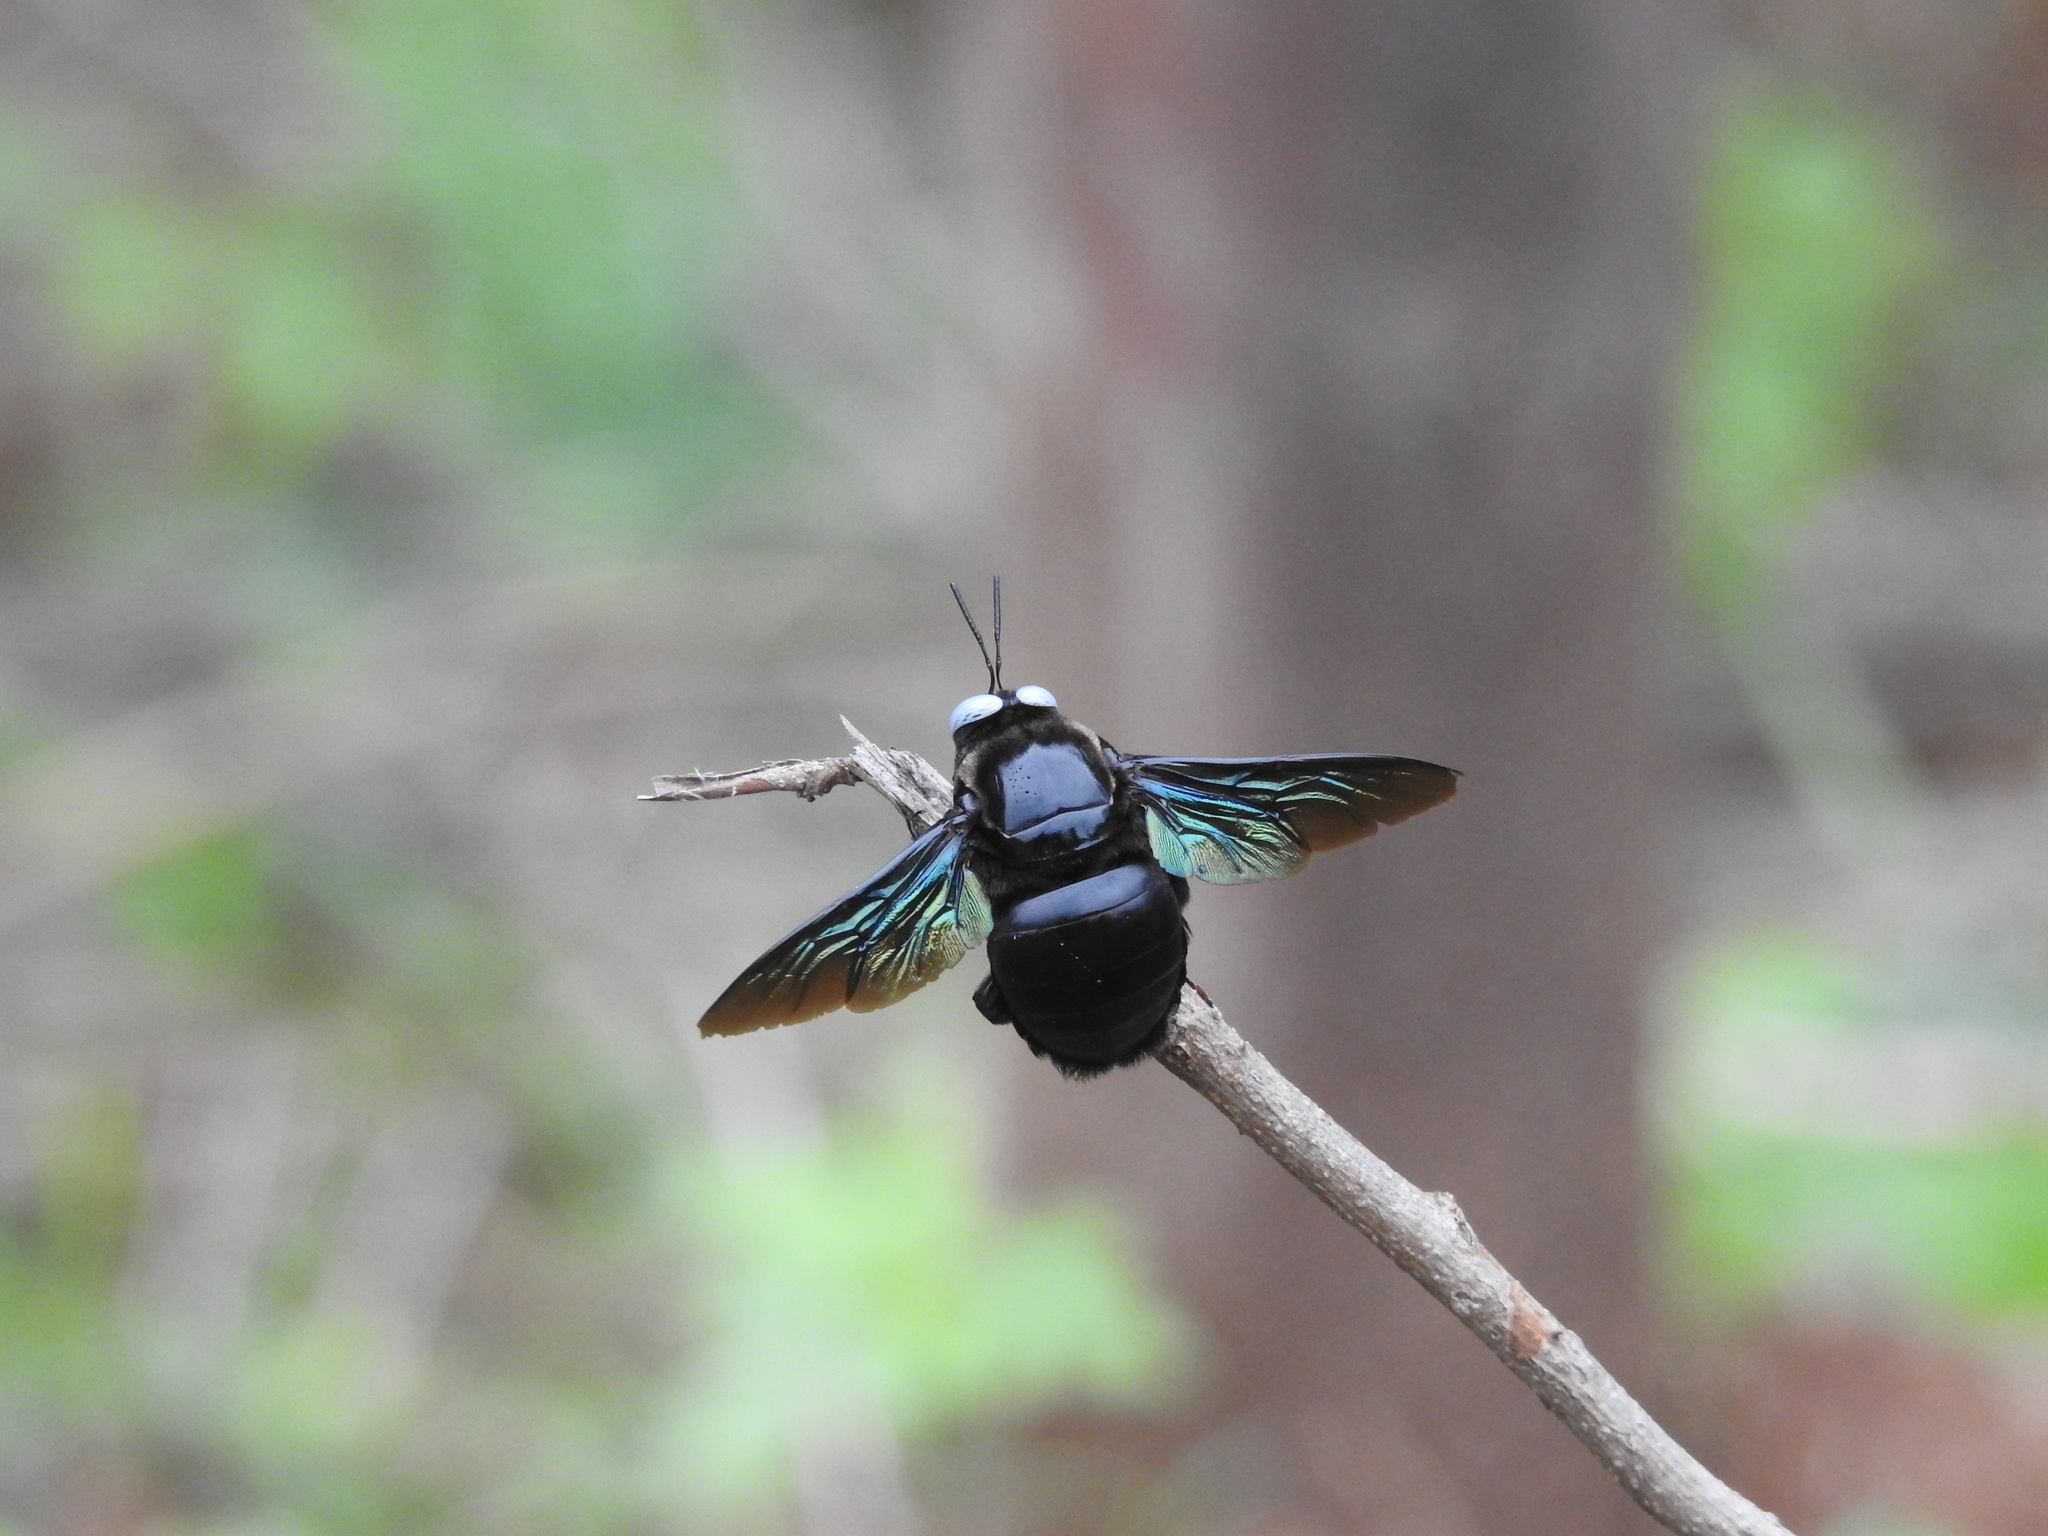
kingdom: Animalia
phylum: Arthropoda
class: Insecta
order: Hymenoptera
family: Apidae
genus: Xylocopa
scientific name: Xylocopa tenuiscapa
